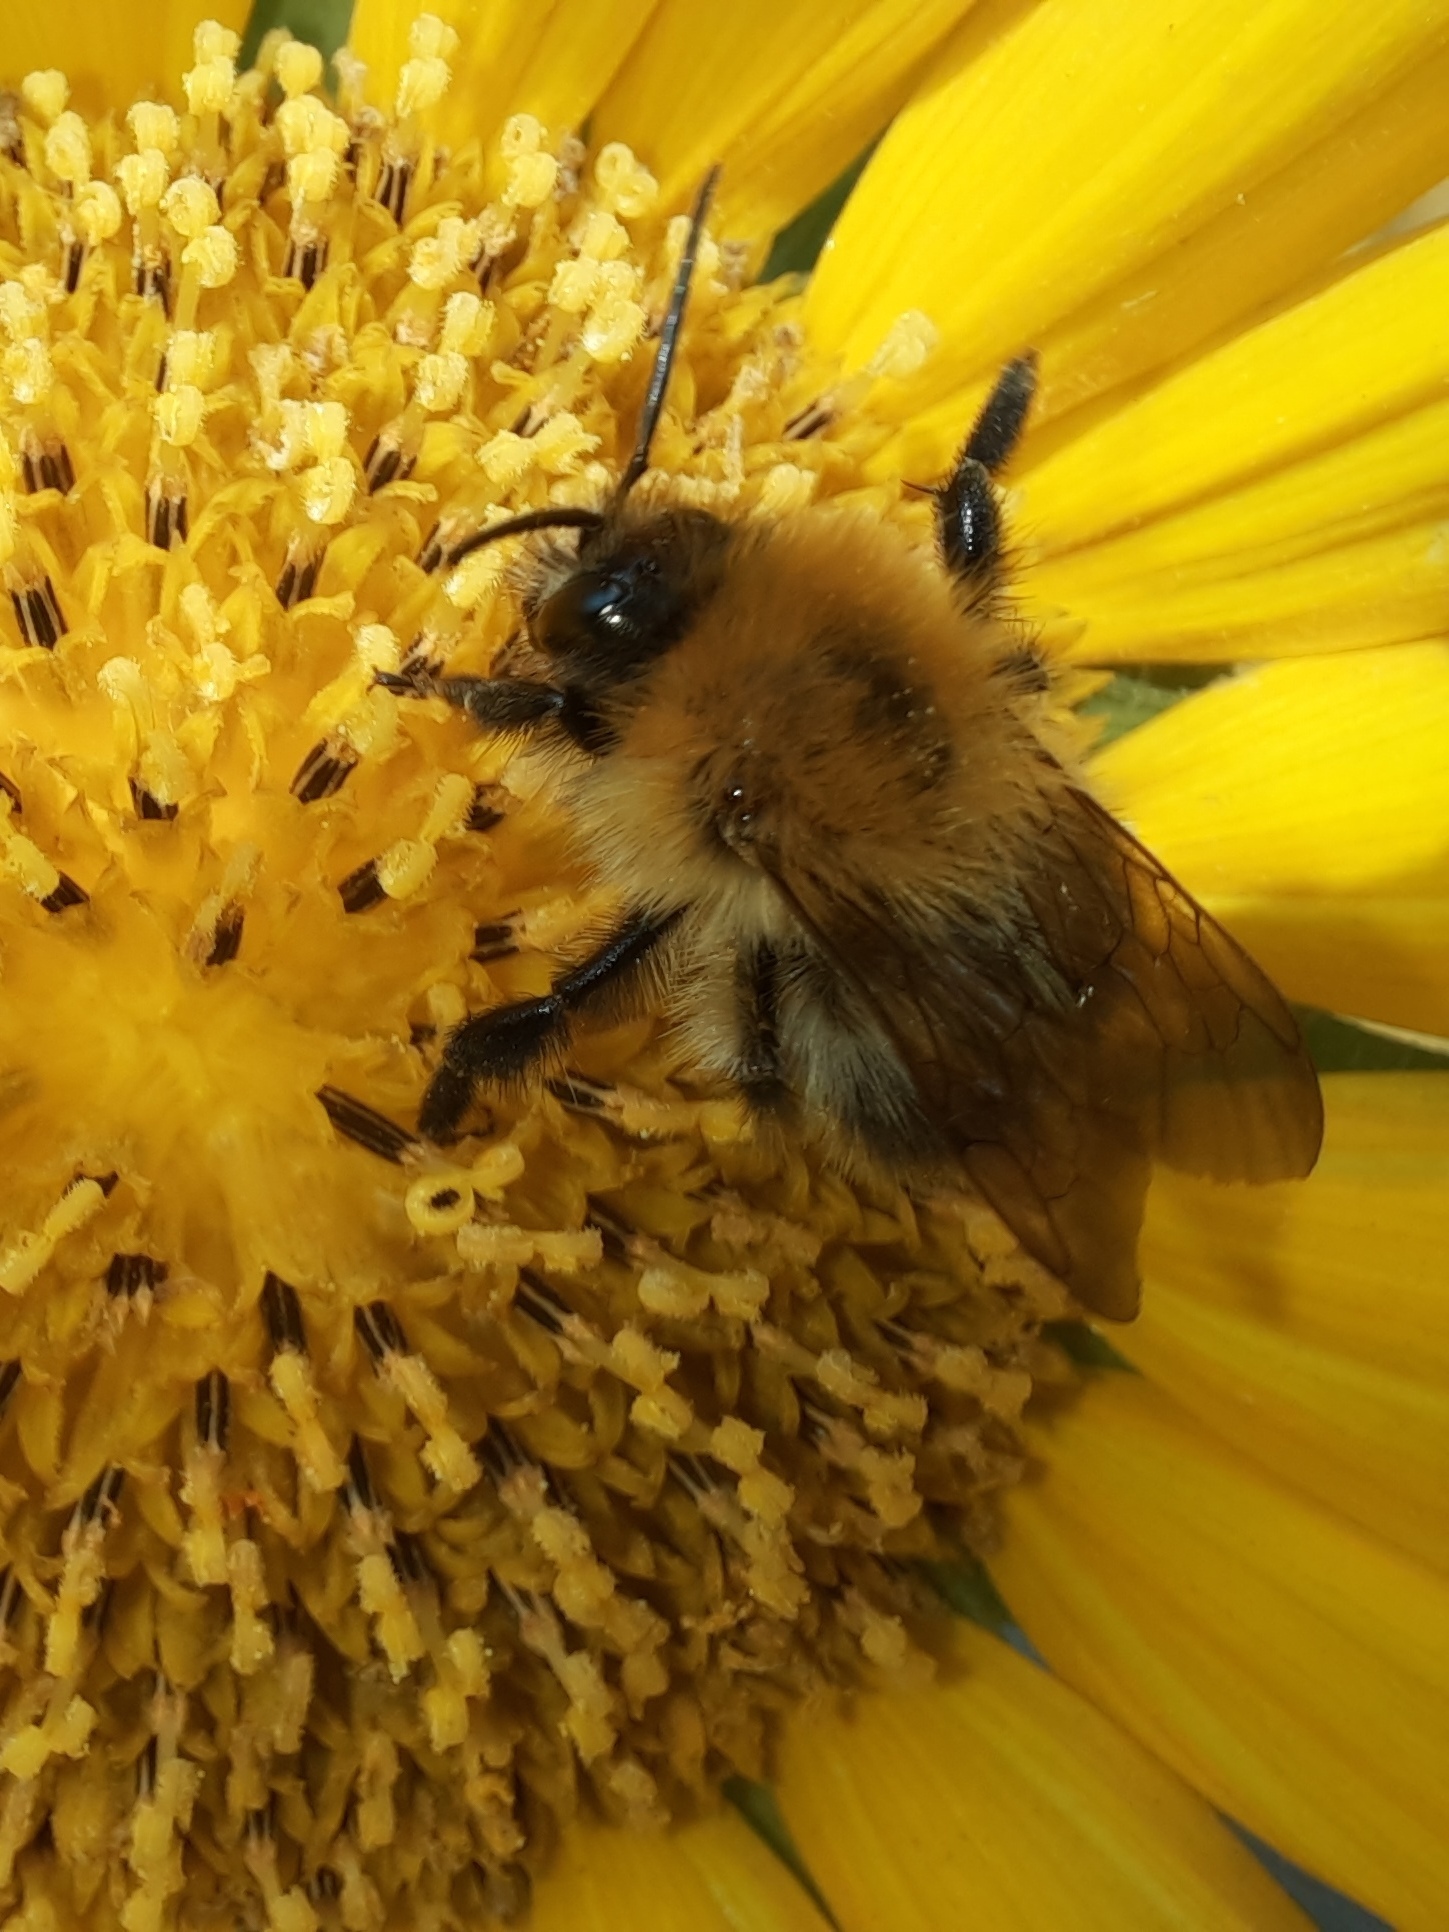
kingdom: Animalia
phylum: Arthropoda
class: Insecta
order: Hymenoptera
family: Apidae
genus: Bombus
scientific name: Bombus pascuorum
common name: Common carder bee
